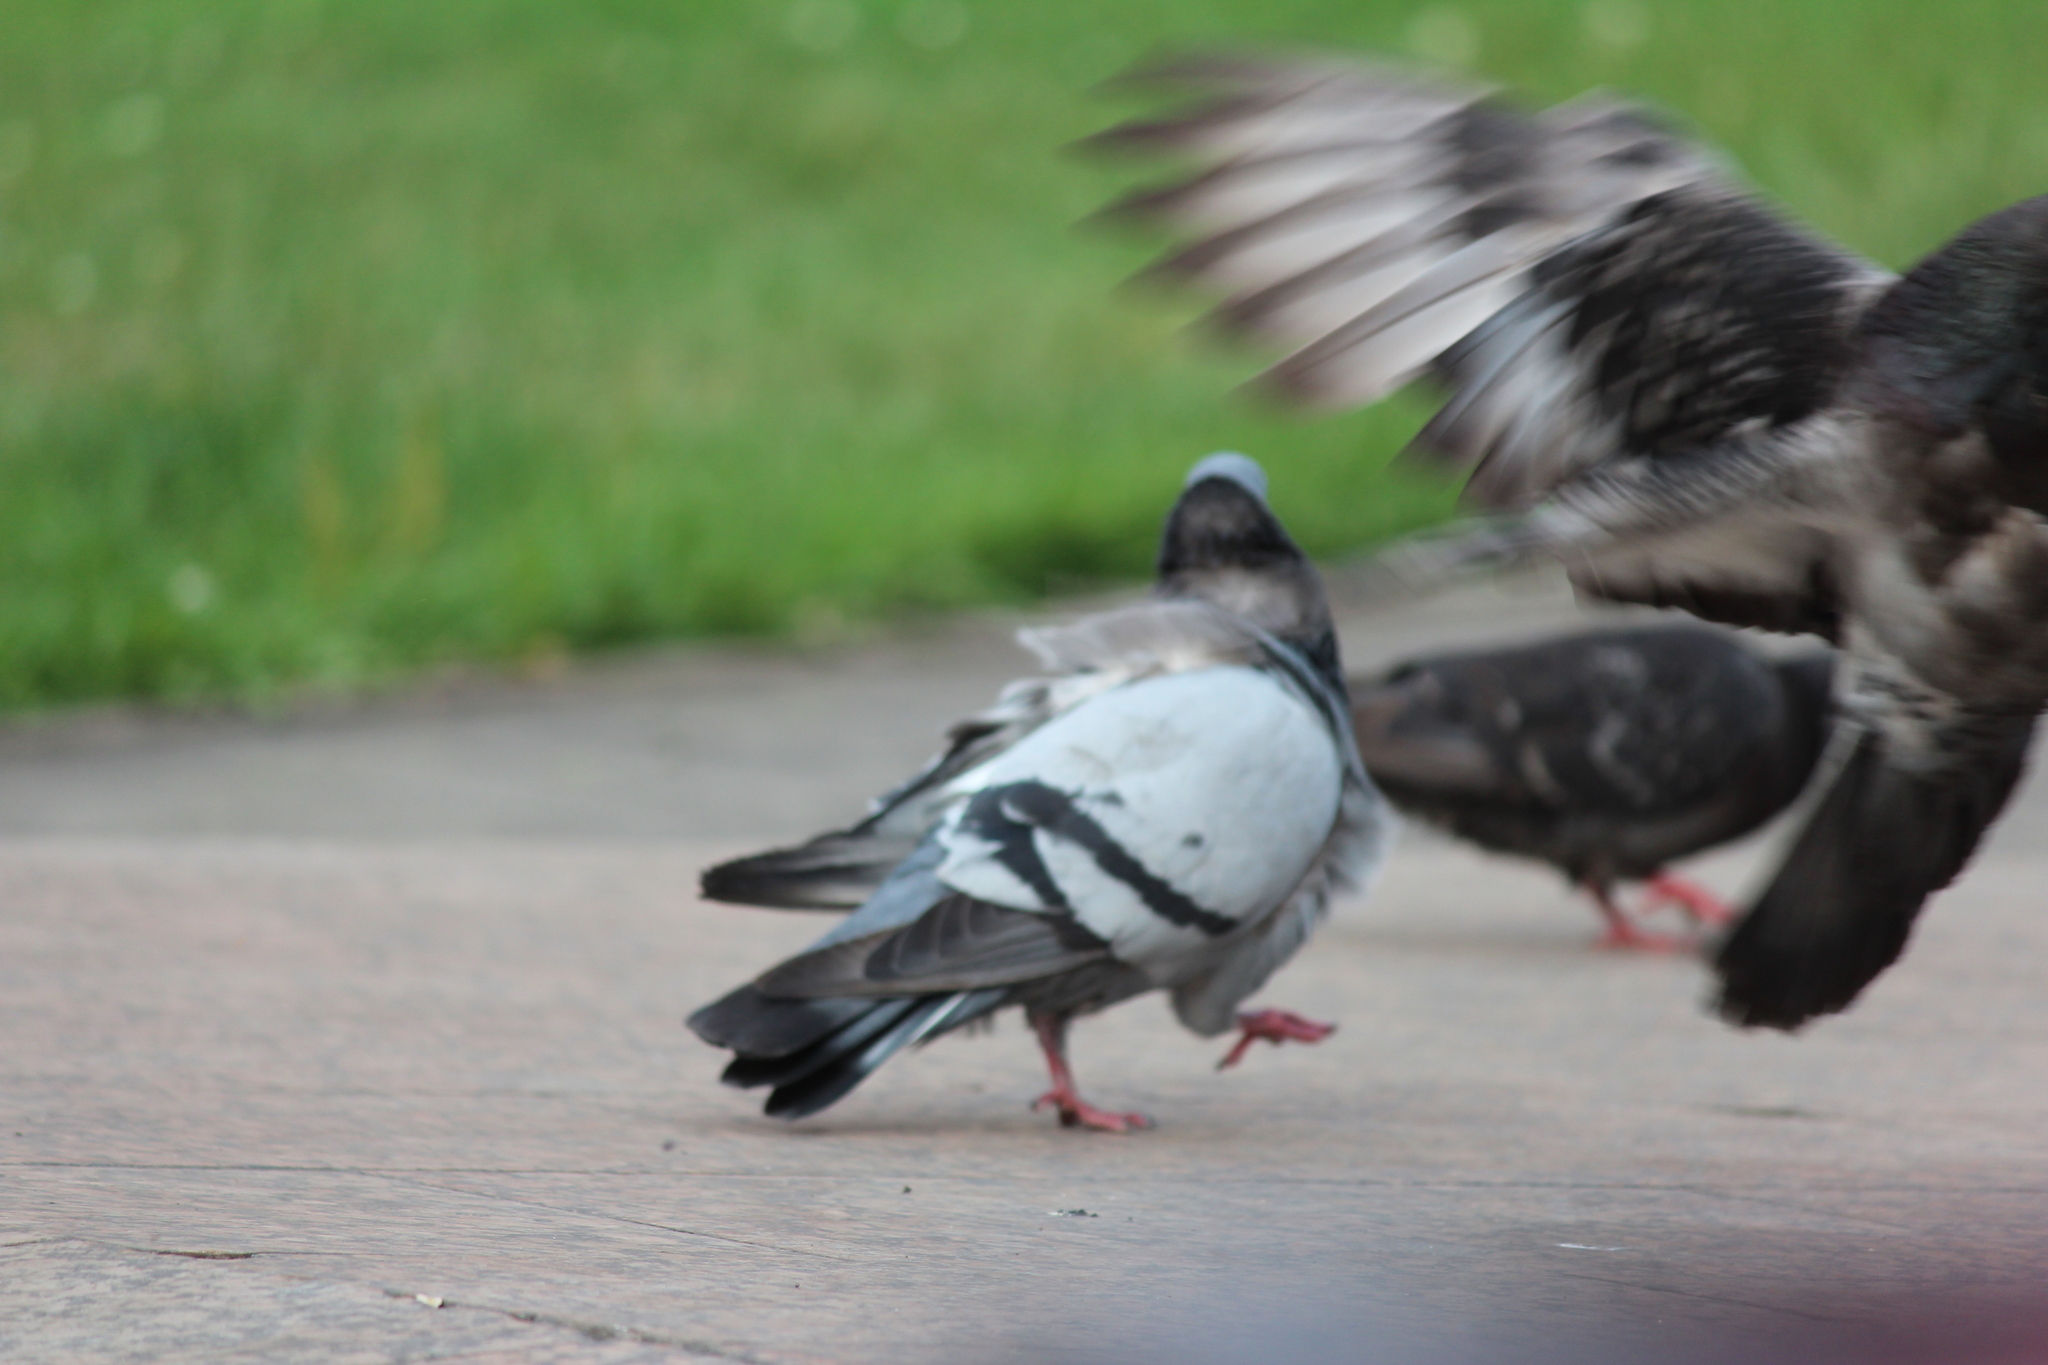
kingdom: Animalia
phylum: Chordata
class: Aves
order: Columbiformes
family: Columbidae
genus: Columba
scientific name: Columba livia
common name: Rock pigeon
